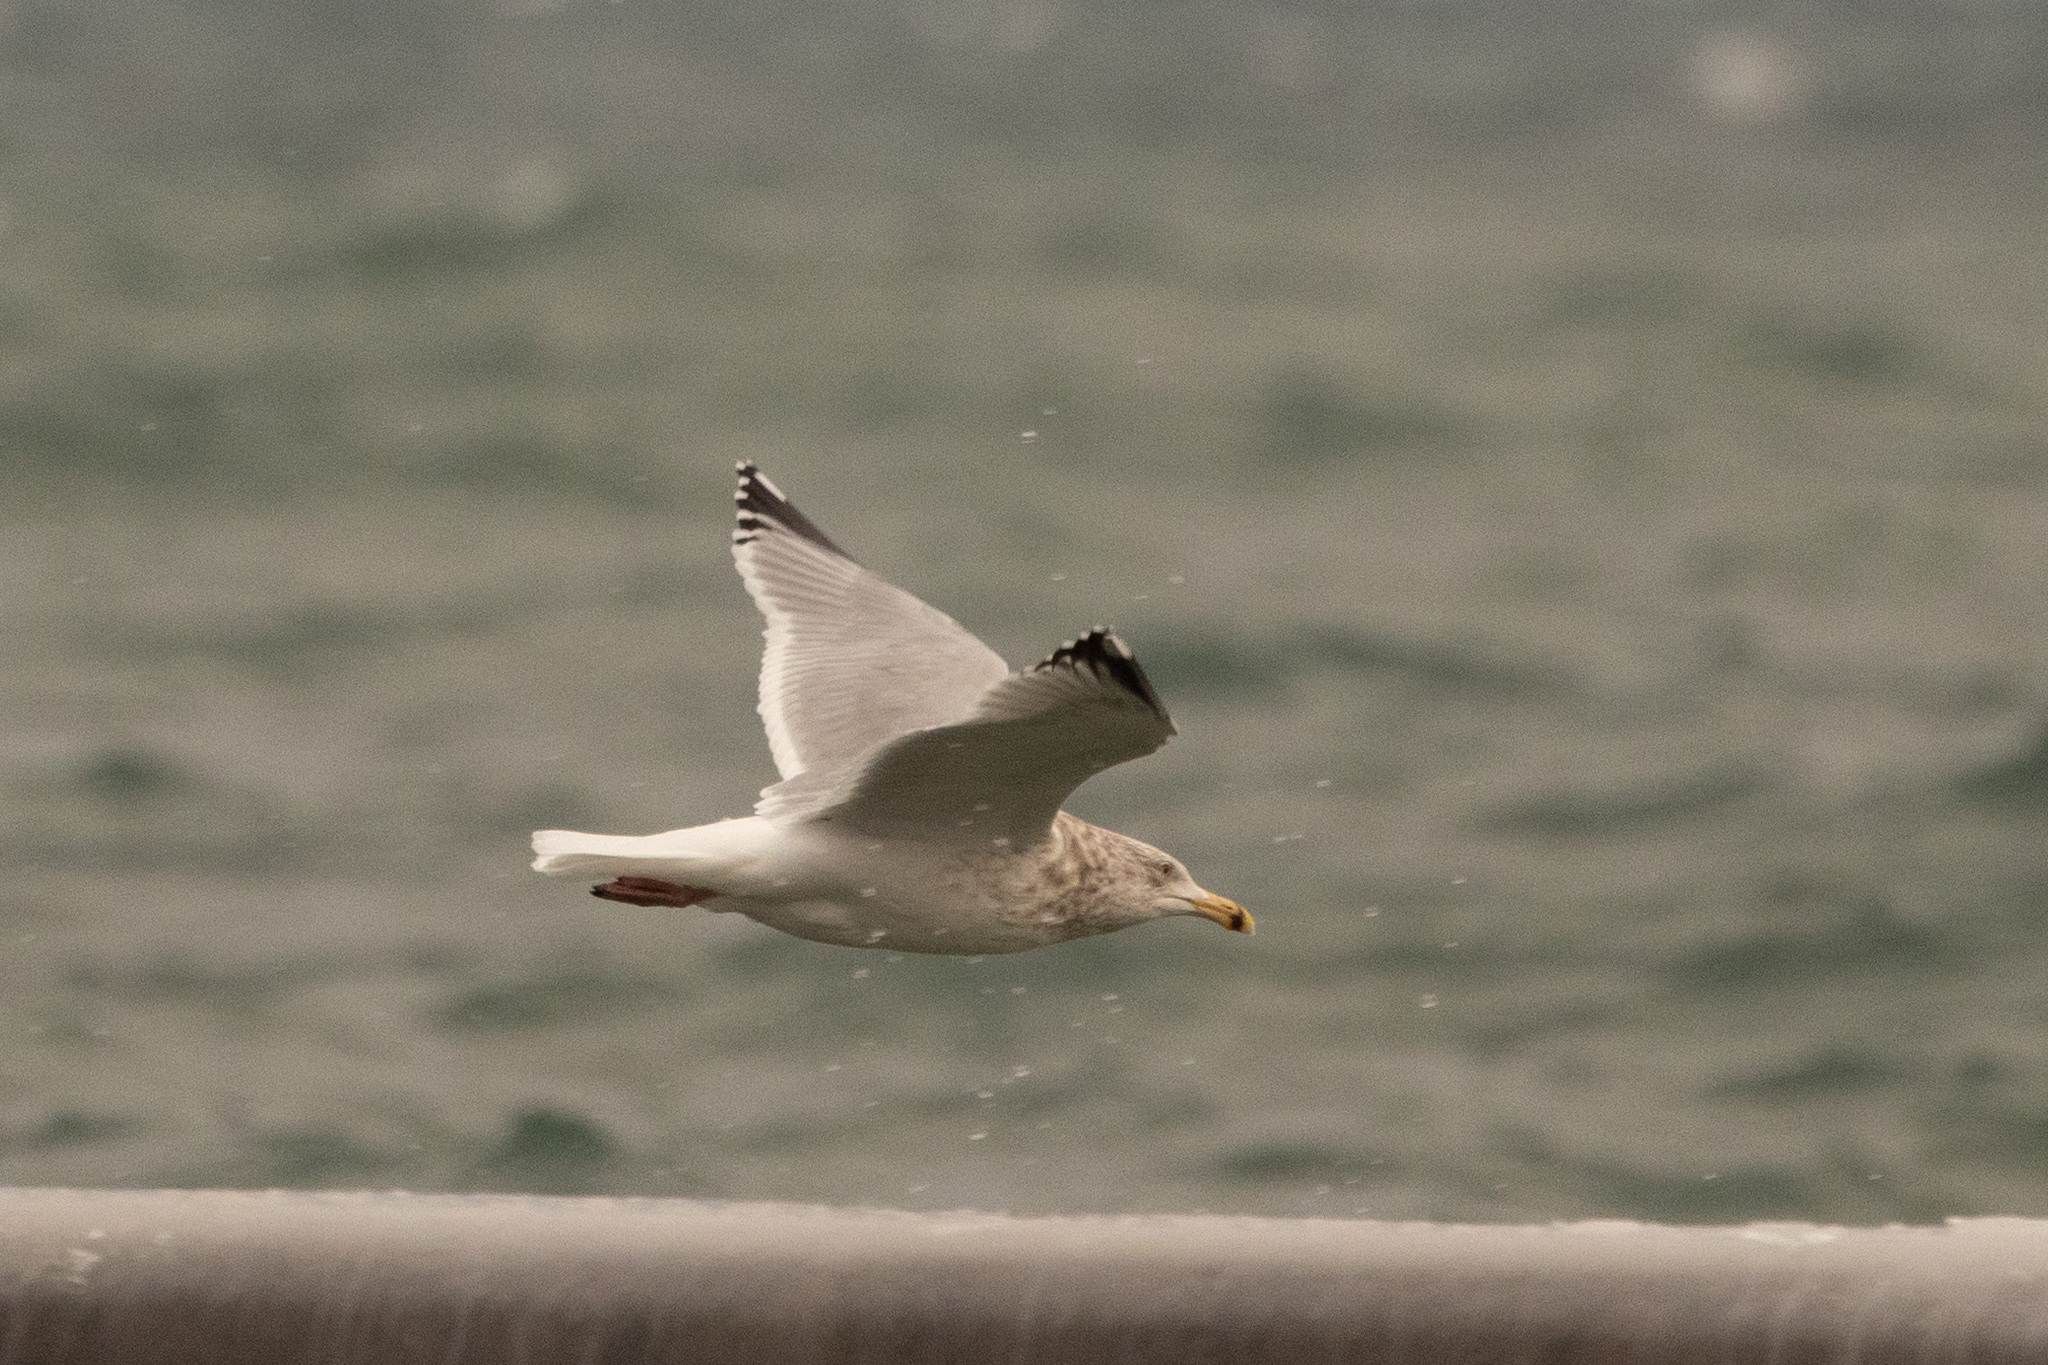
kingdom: Animalia
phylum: Chordata
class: Aves
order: Charadriiformes
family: Laridae
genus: Larus
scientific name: Larus argentatus
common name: Herring gull
